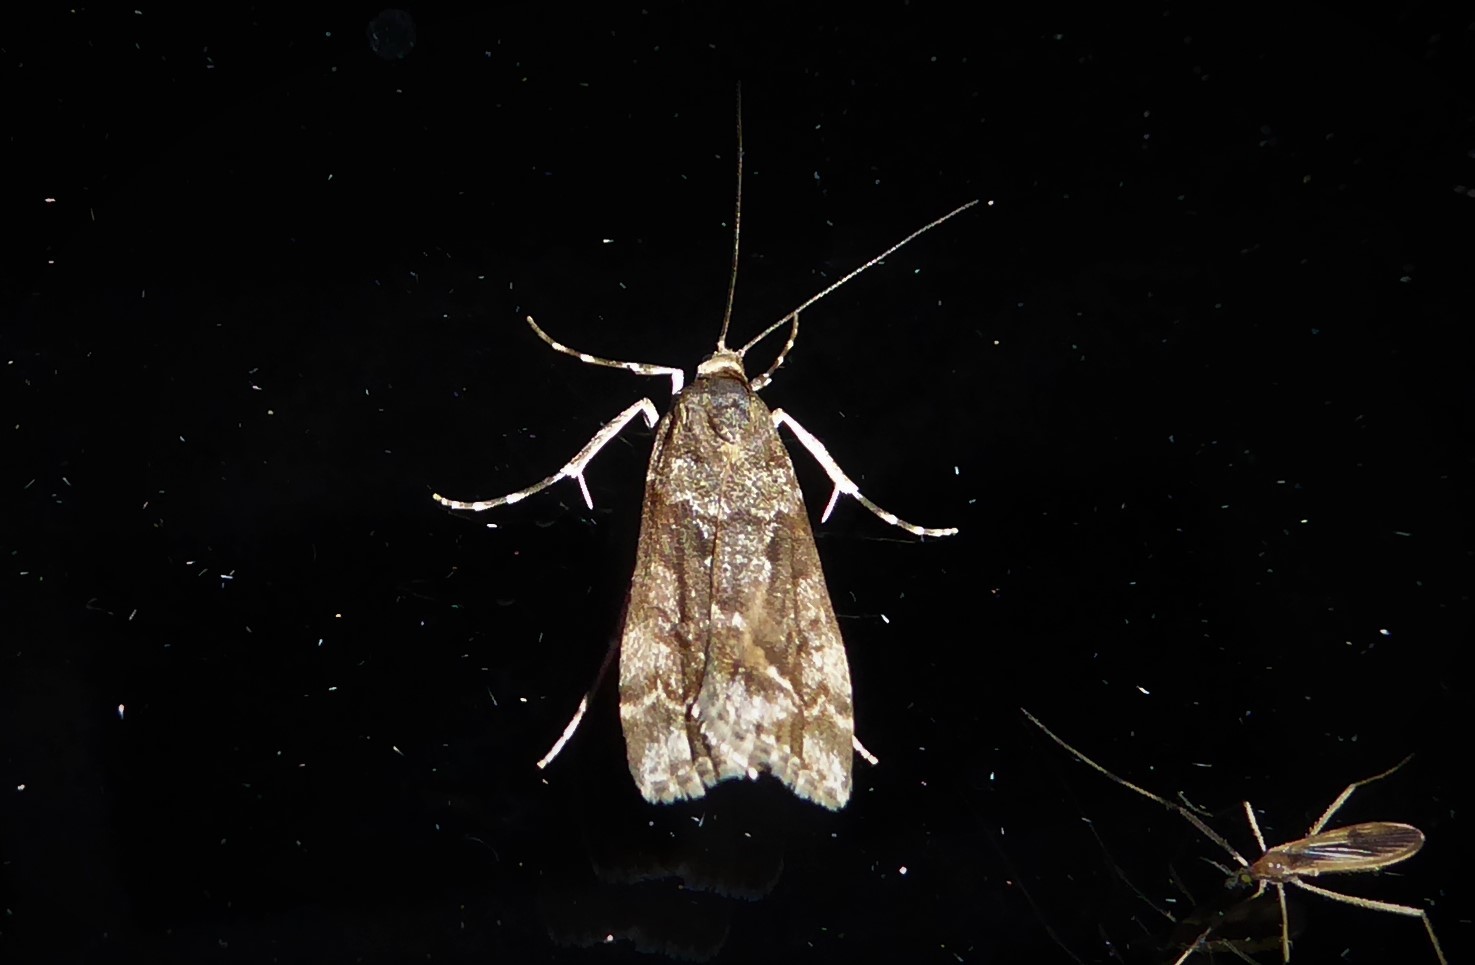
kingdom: Animalia
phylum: Arthropoda
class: Insecta
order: Lepidoptera
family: Crambidae
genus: Eudonia
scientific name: Eudonia submarginalis
